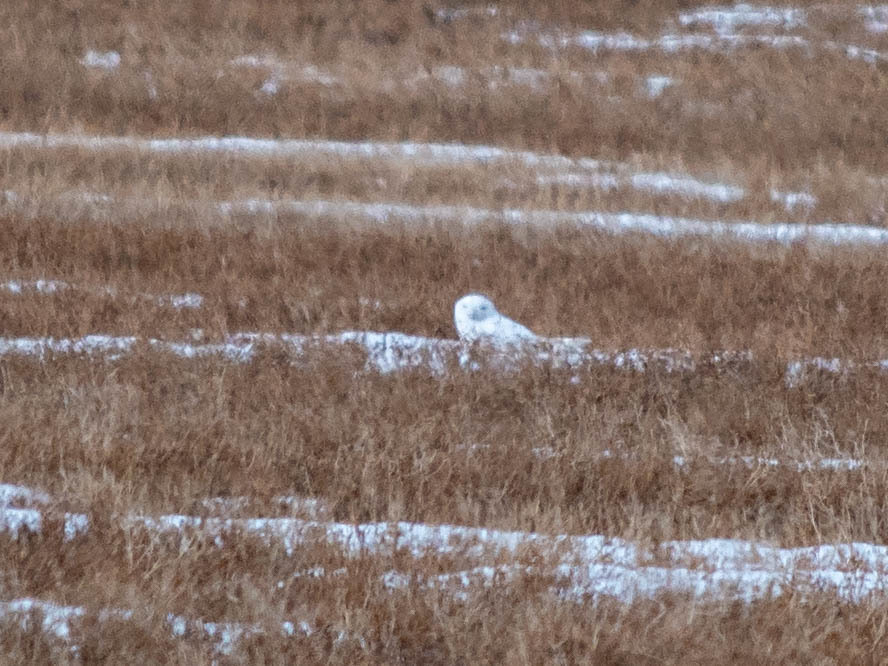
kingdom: Animalia
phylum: Chordata
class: Aves
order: Strigiformes
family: Strigidae
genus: Bubo
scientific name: Bubo scandiacus
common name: Snowy owl
